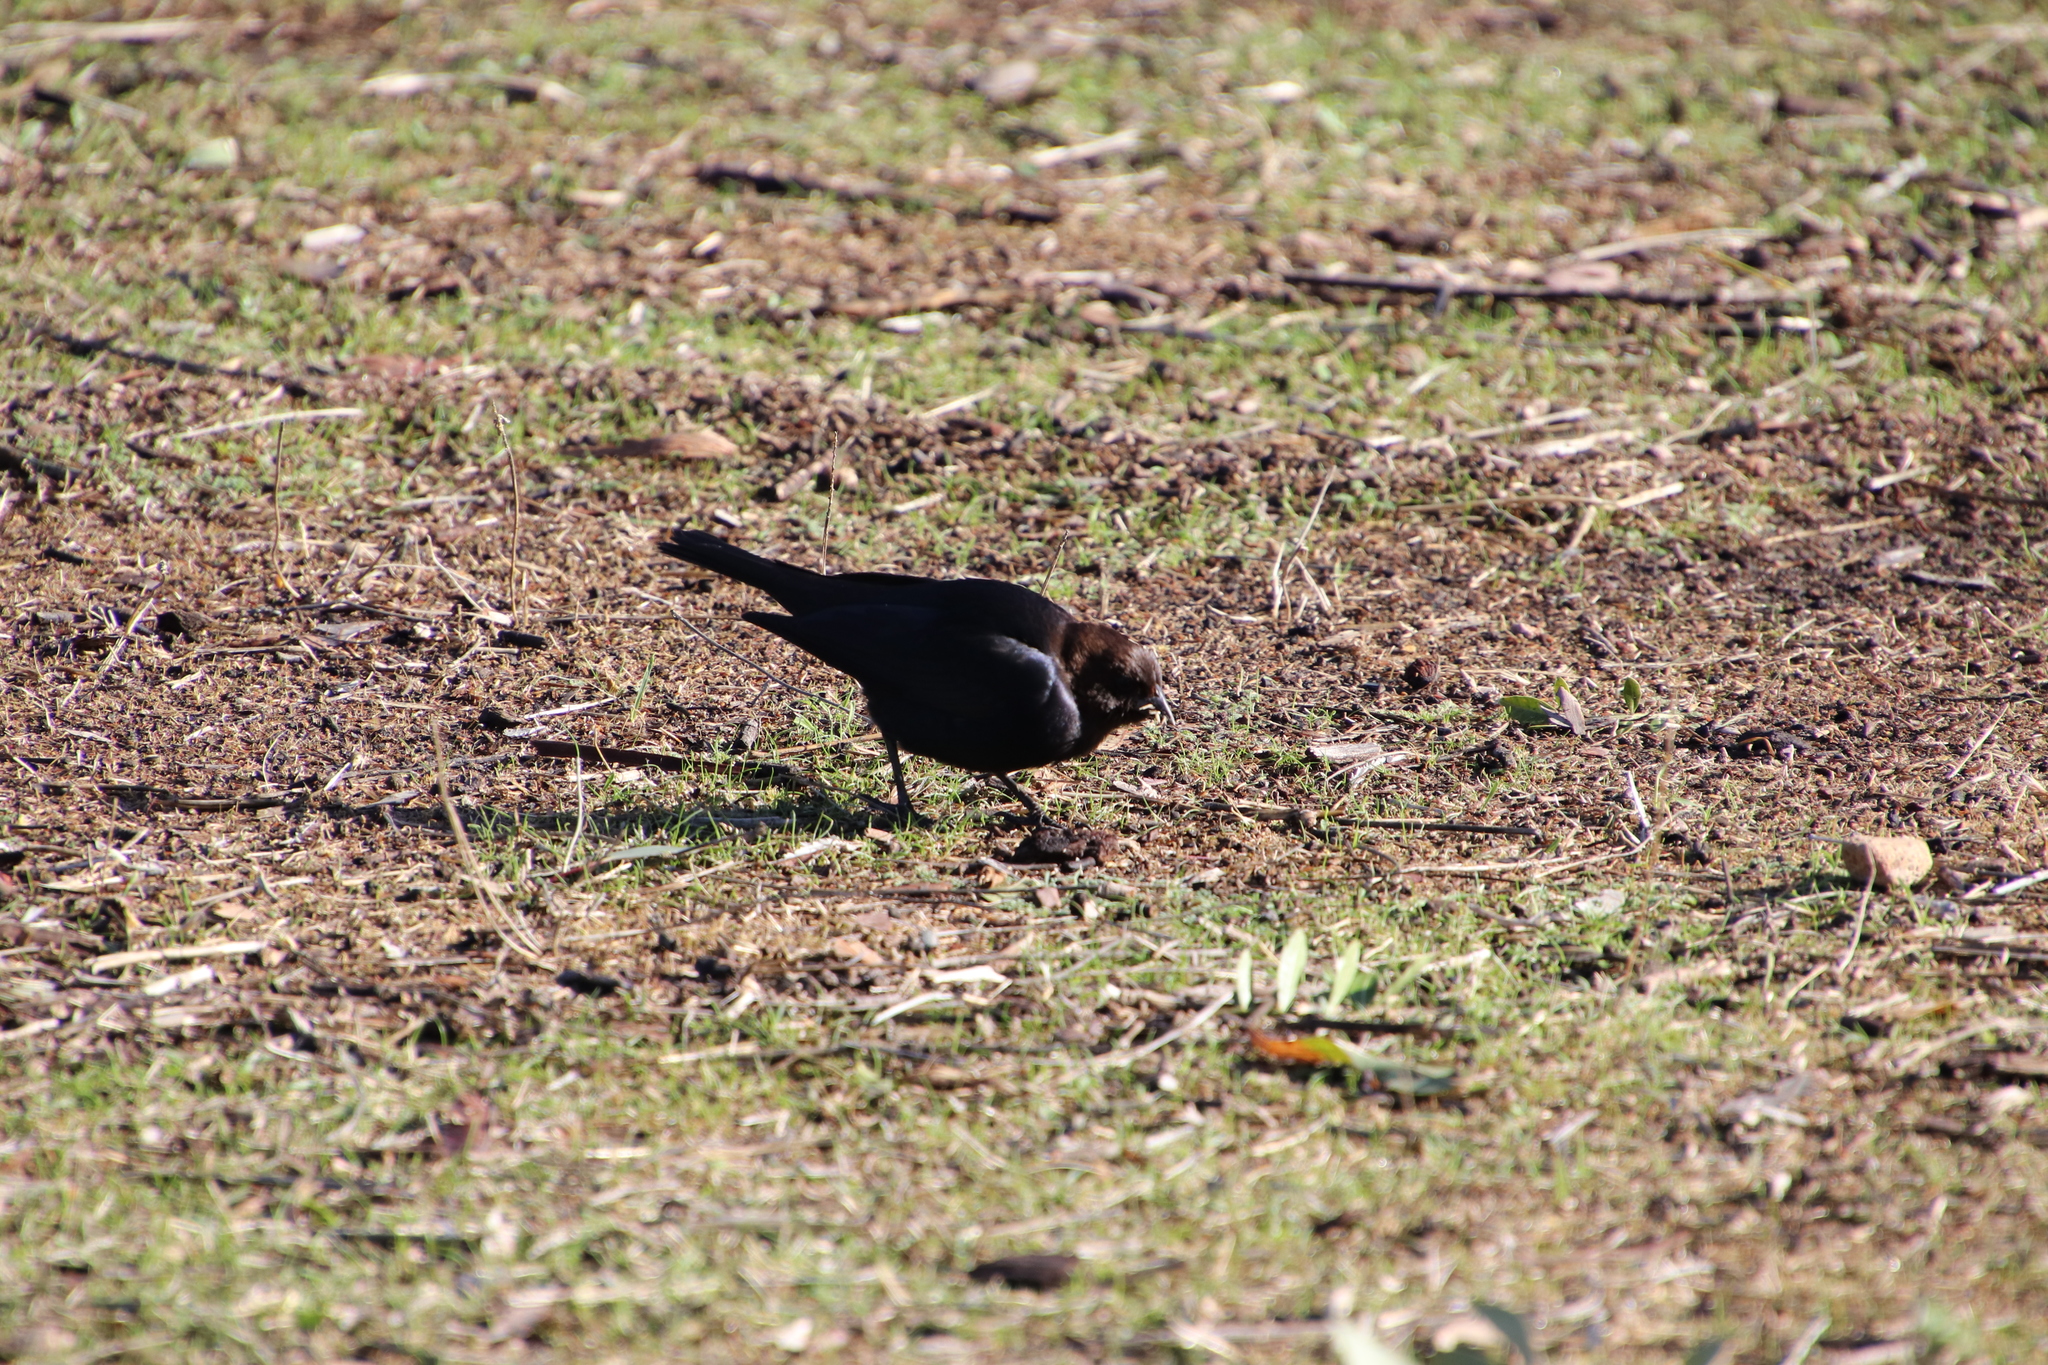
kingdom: Animalia
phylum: Chordata
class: Aves
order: Passeriformes
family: Icteridae
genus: Molothrus
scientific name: Molothrus ater
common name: Brown-headed cowbird
